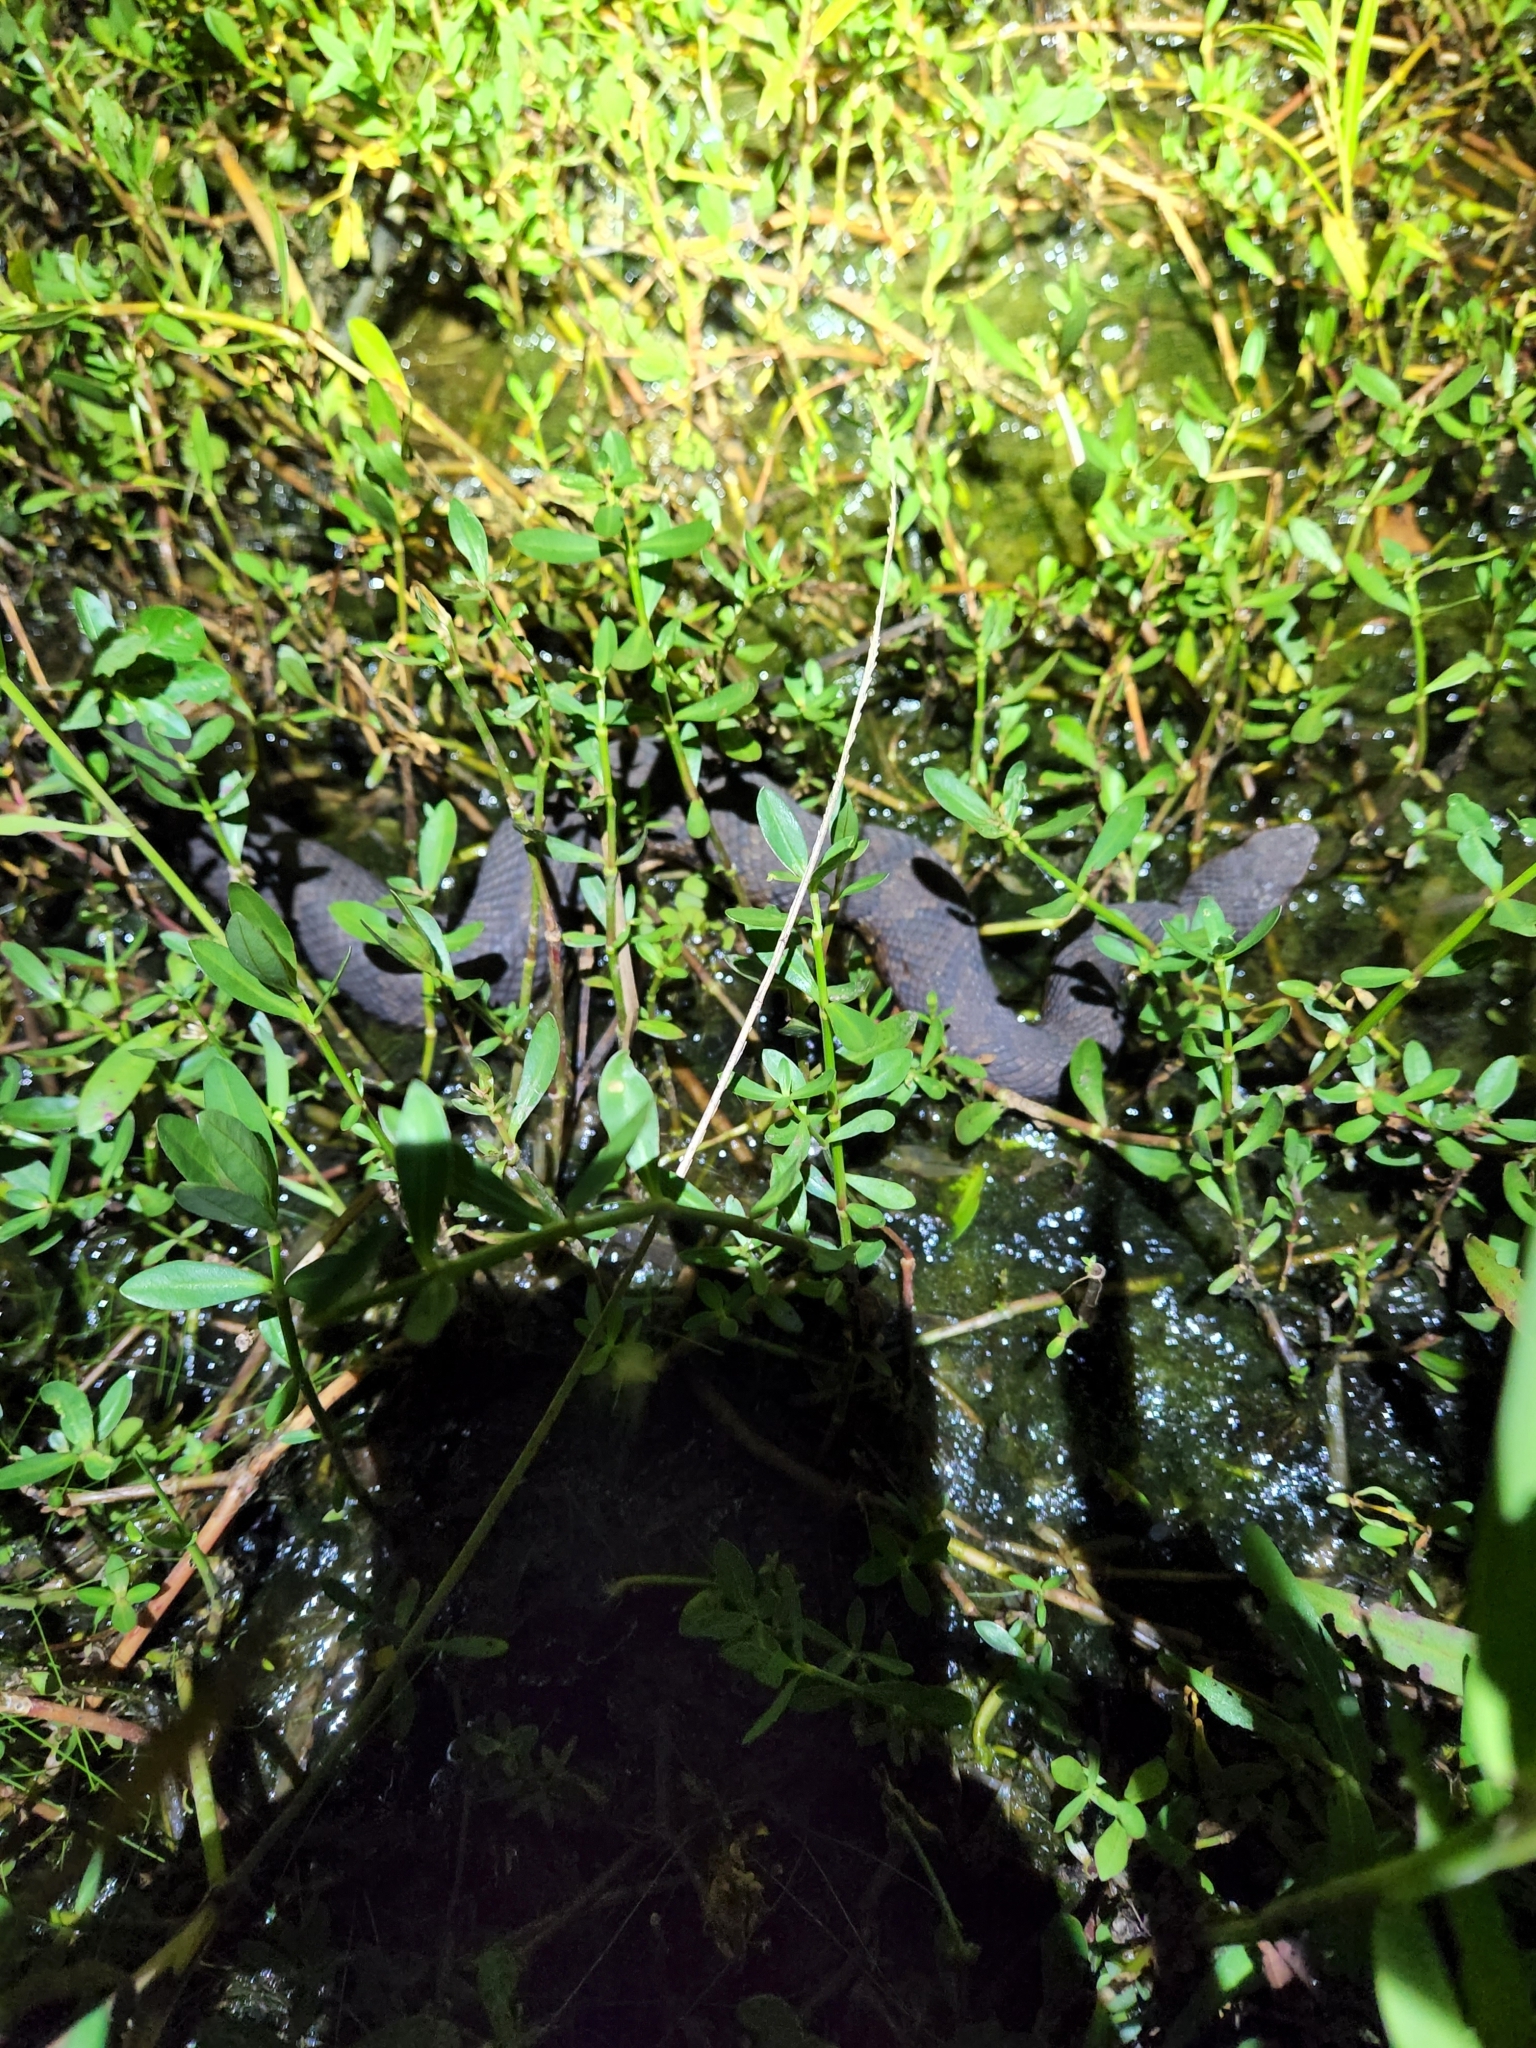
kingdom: Animalia
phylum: Chordata
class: Squamata
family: Viperidae
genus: Agkistrodon
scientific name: Agkistrodon piscivorus
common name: Cottonmouth
